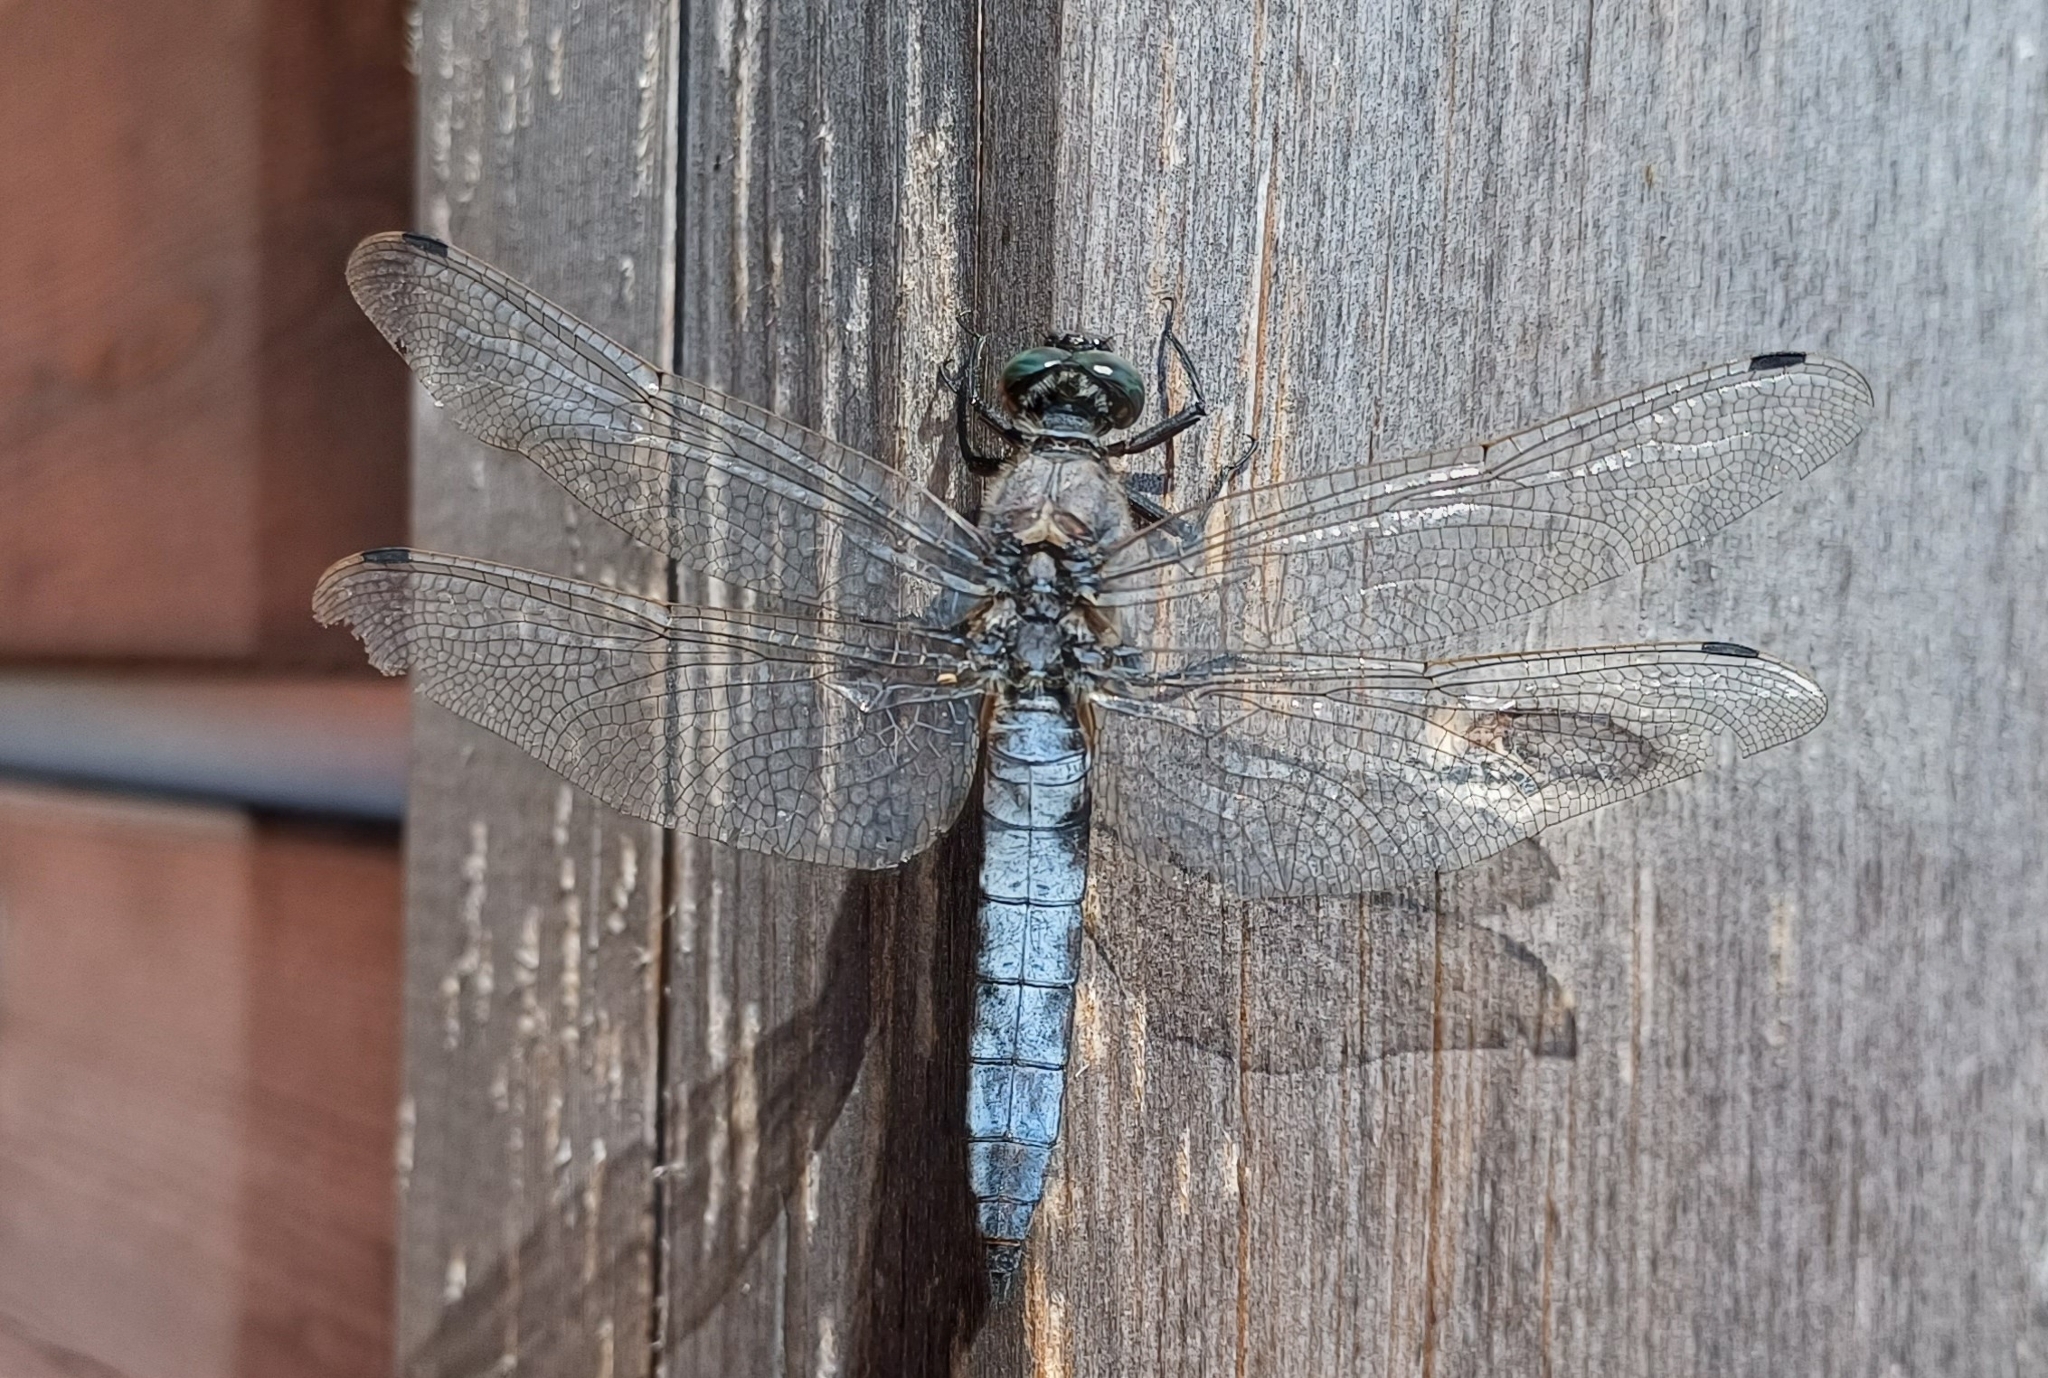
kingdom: Animalia
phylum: Arthropoda
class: Insecta
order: Odonata
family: Libellulidae
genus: Orthetrum
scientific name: Orthetrum cancellatum
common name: Black-tailed skimmer
